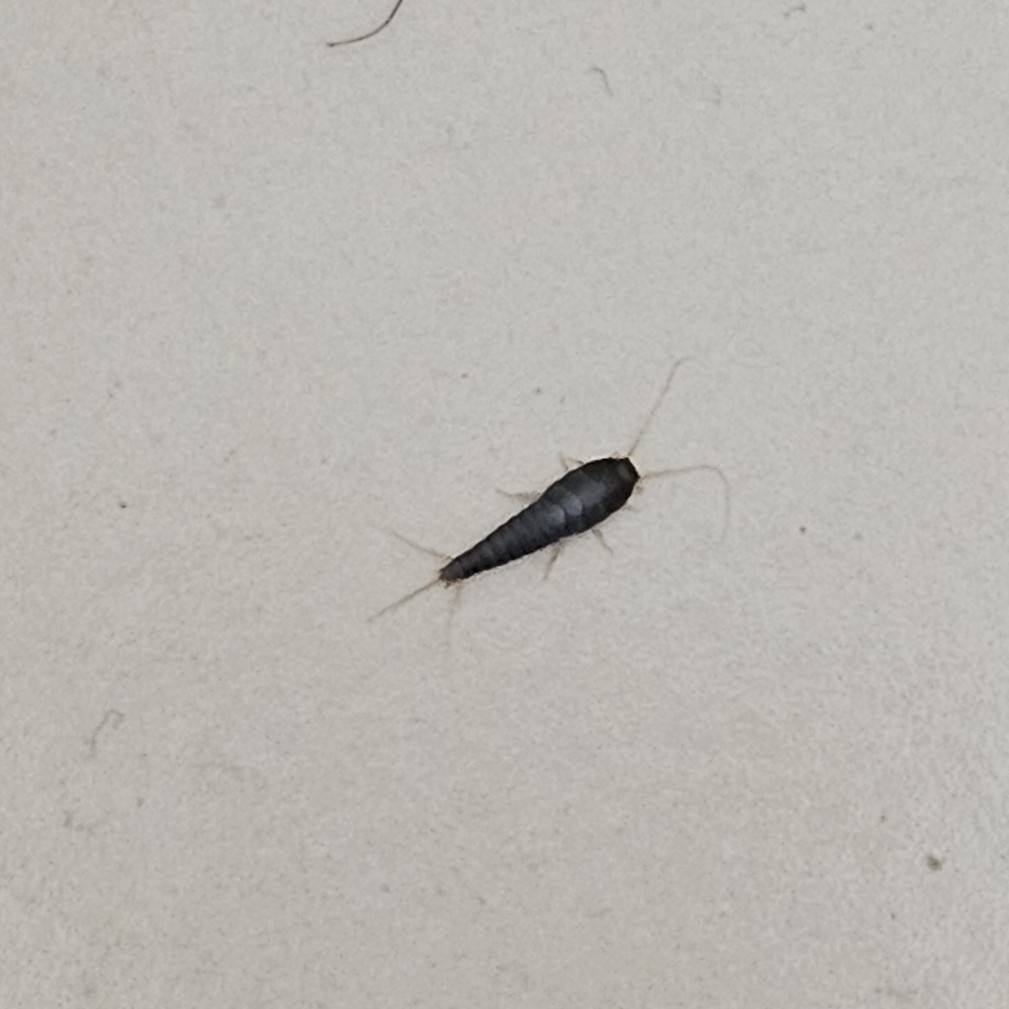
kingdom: Animalia
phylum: Arthropoda
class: Insecta
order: Zygentoma
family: Lepismatidae
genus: Lepisma
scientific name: Lepisma saccharinum
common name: Silverfish
